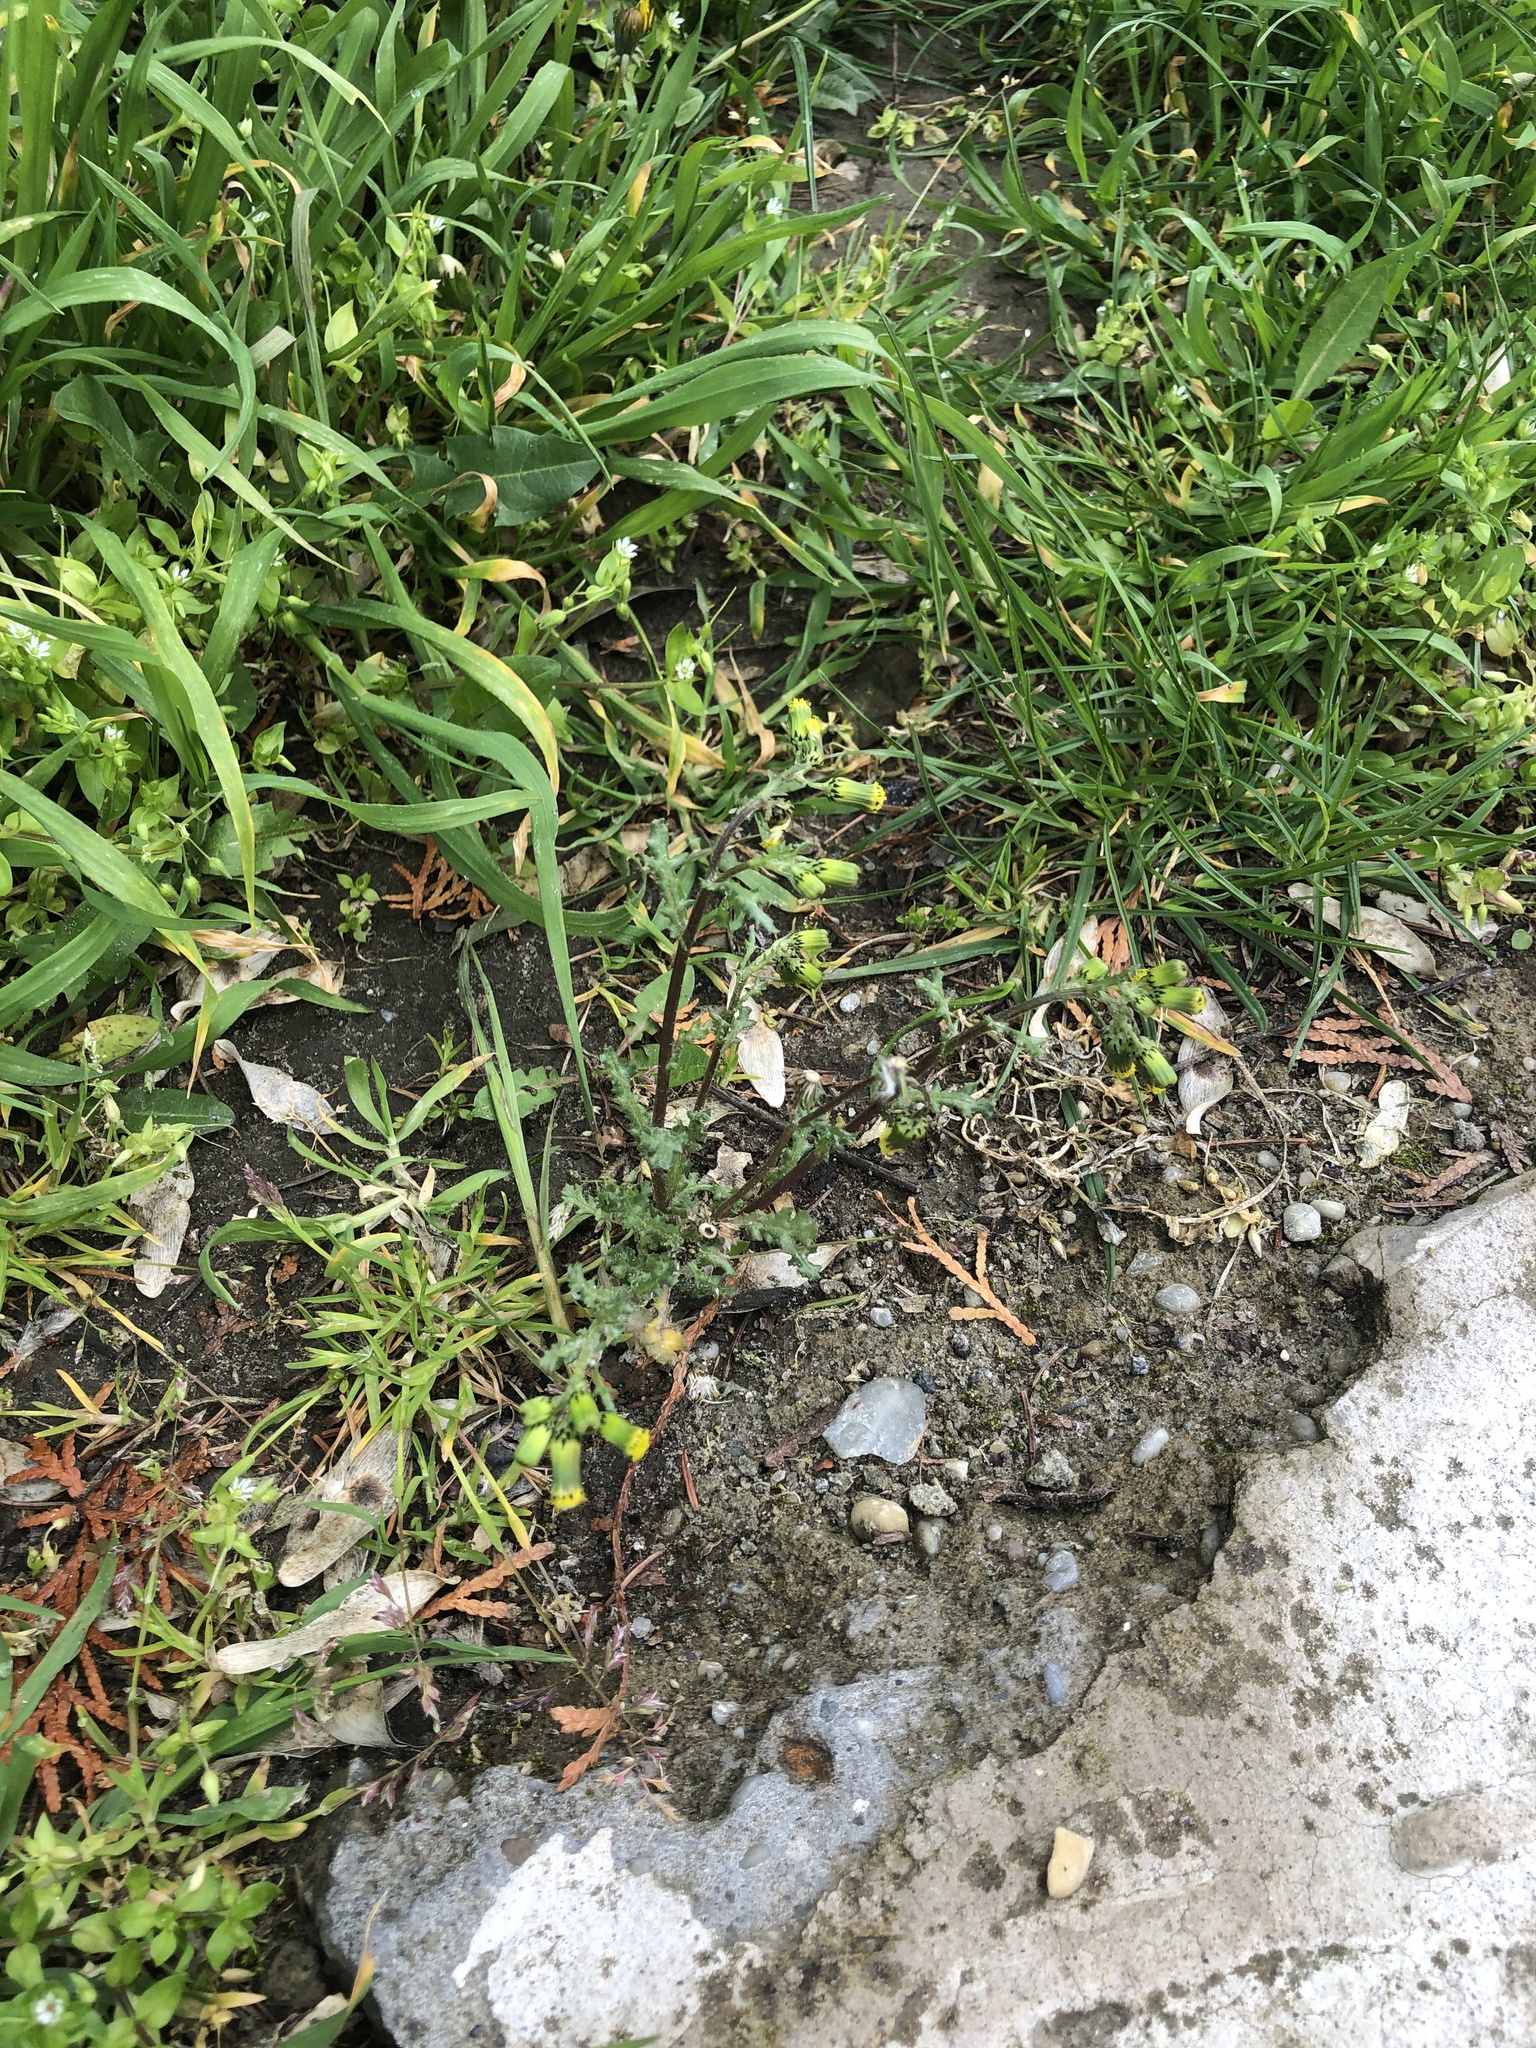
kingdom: Plantae
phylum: Tracheophyta
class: Magnoliopsida
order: Asterales
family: Asteraceae
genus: Senecio
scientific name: Senecio vulgaris
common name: Old-man-in-the-spring
